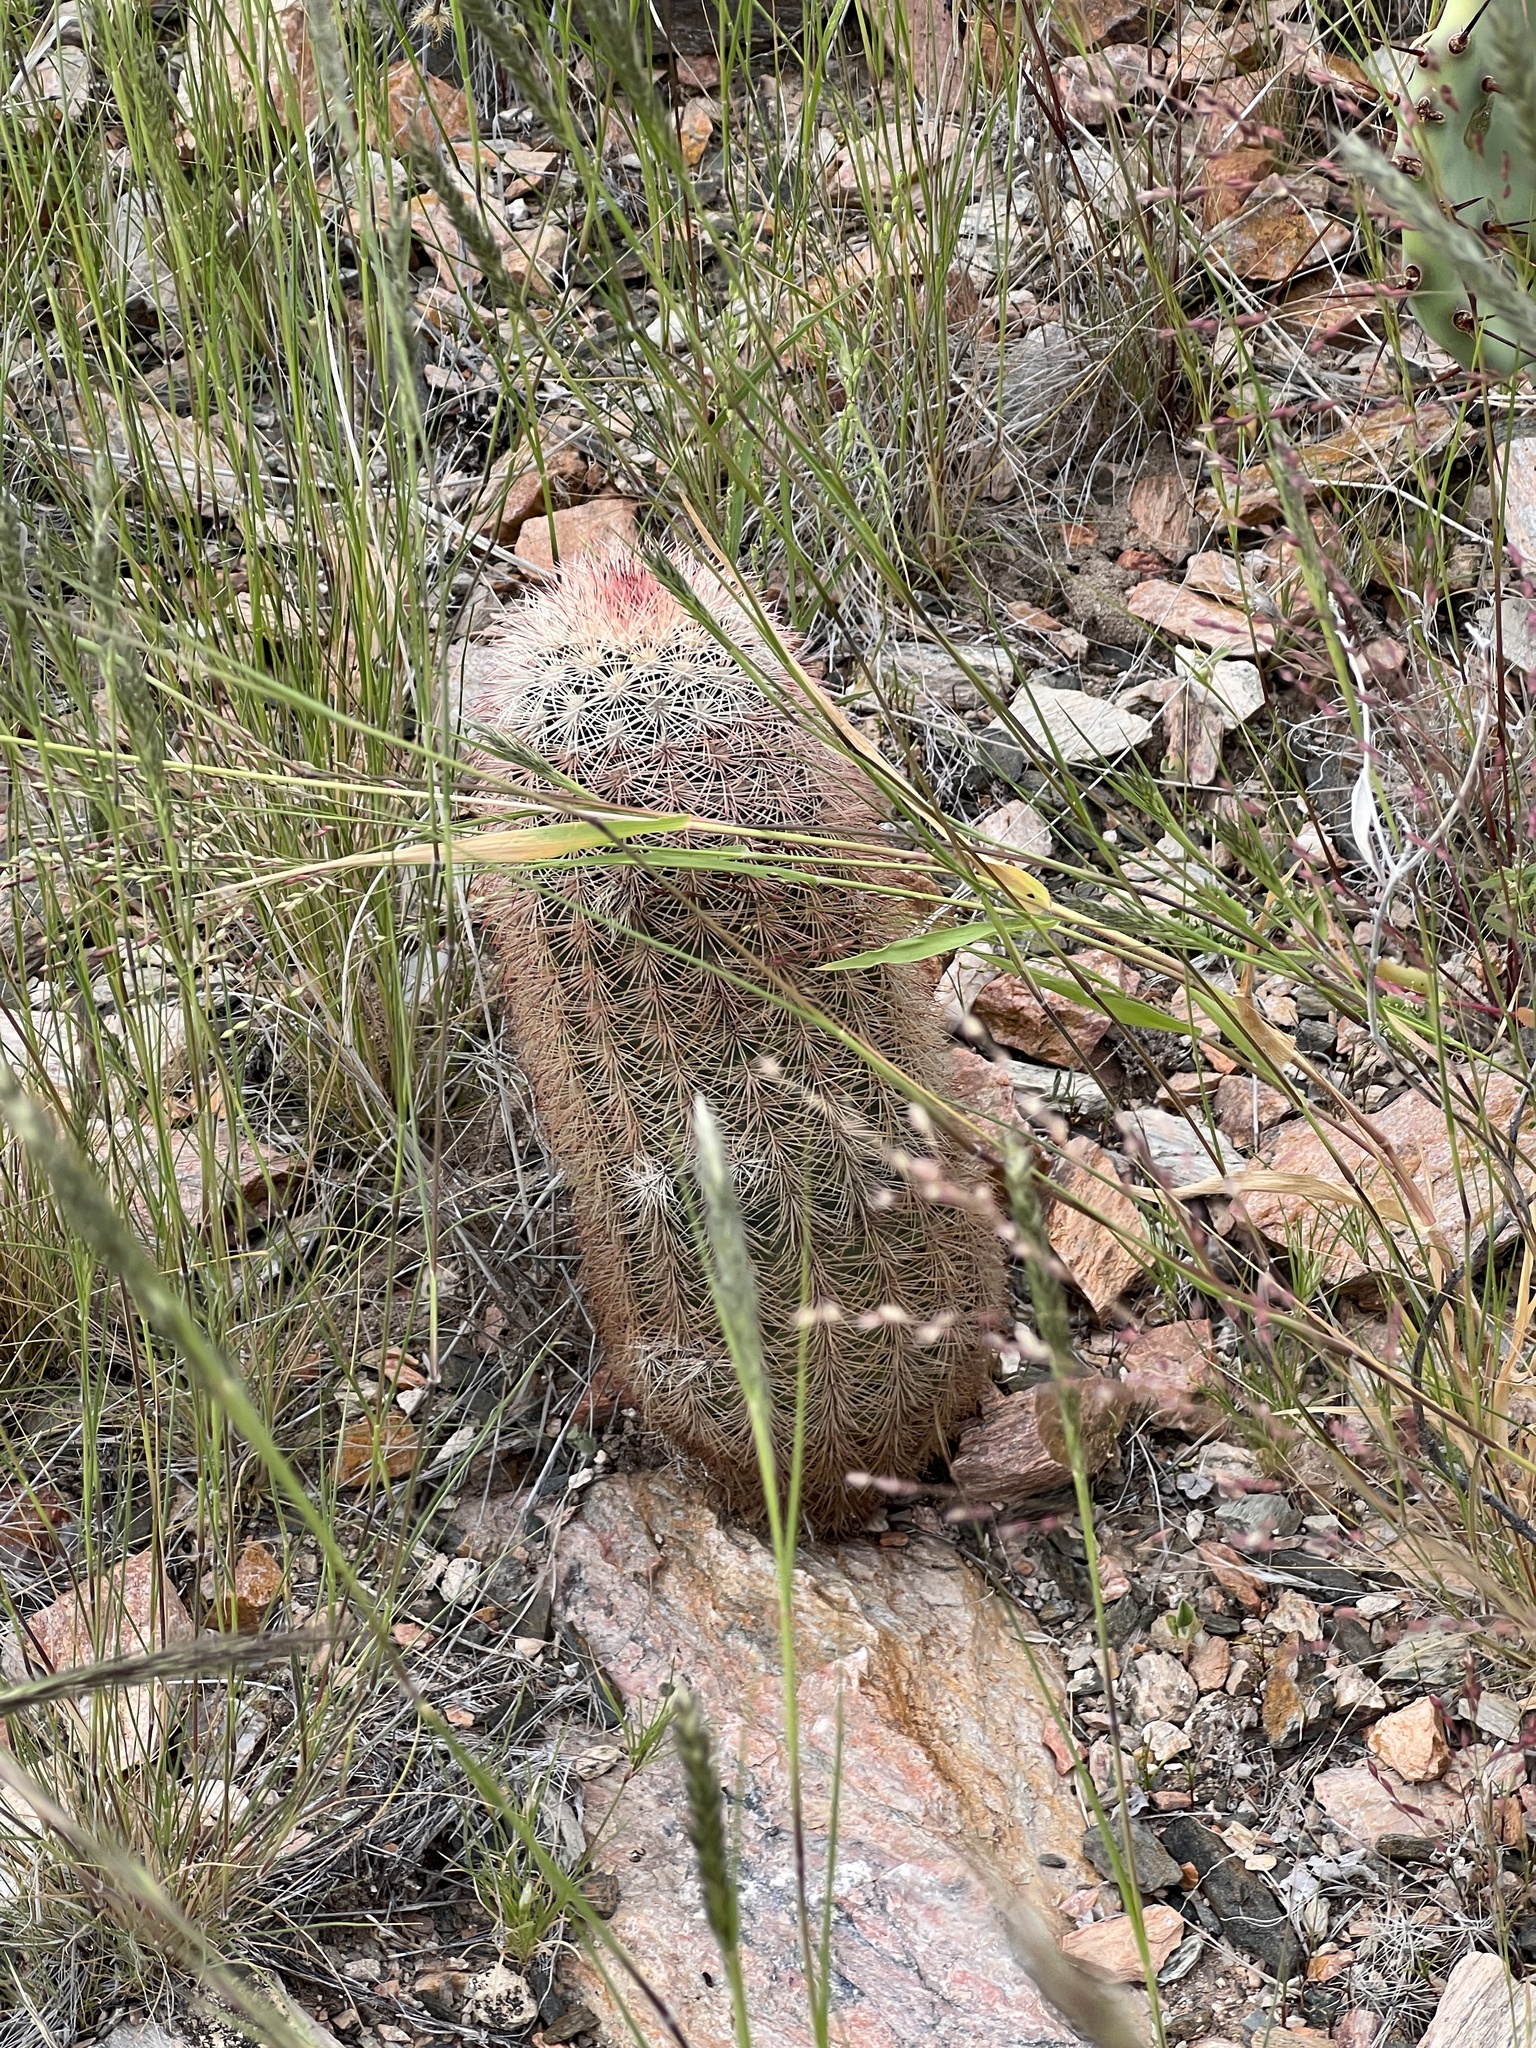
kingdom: Plantae
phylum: Tracheophyta
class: Magnoliopsida
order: Caryophyllales
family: Cactaceae
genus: Echinocereus
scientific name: Echinocereus dasyacanthus
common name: Spiny hedgehog cactus
